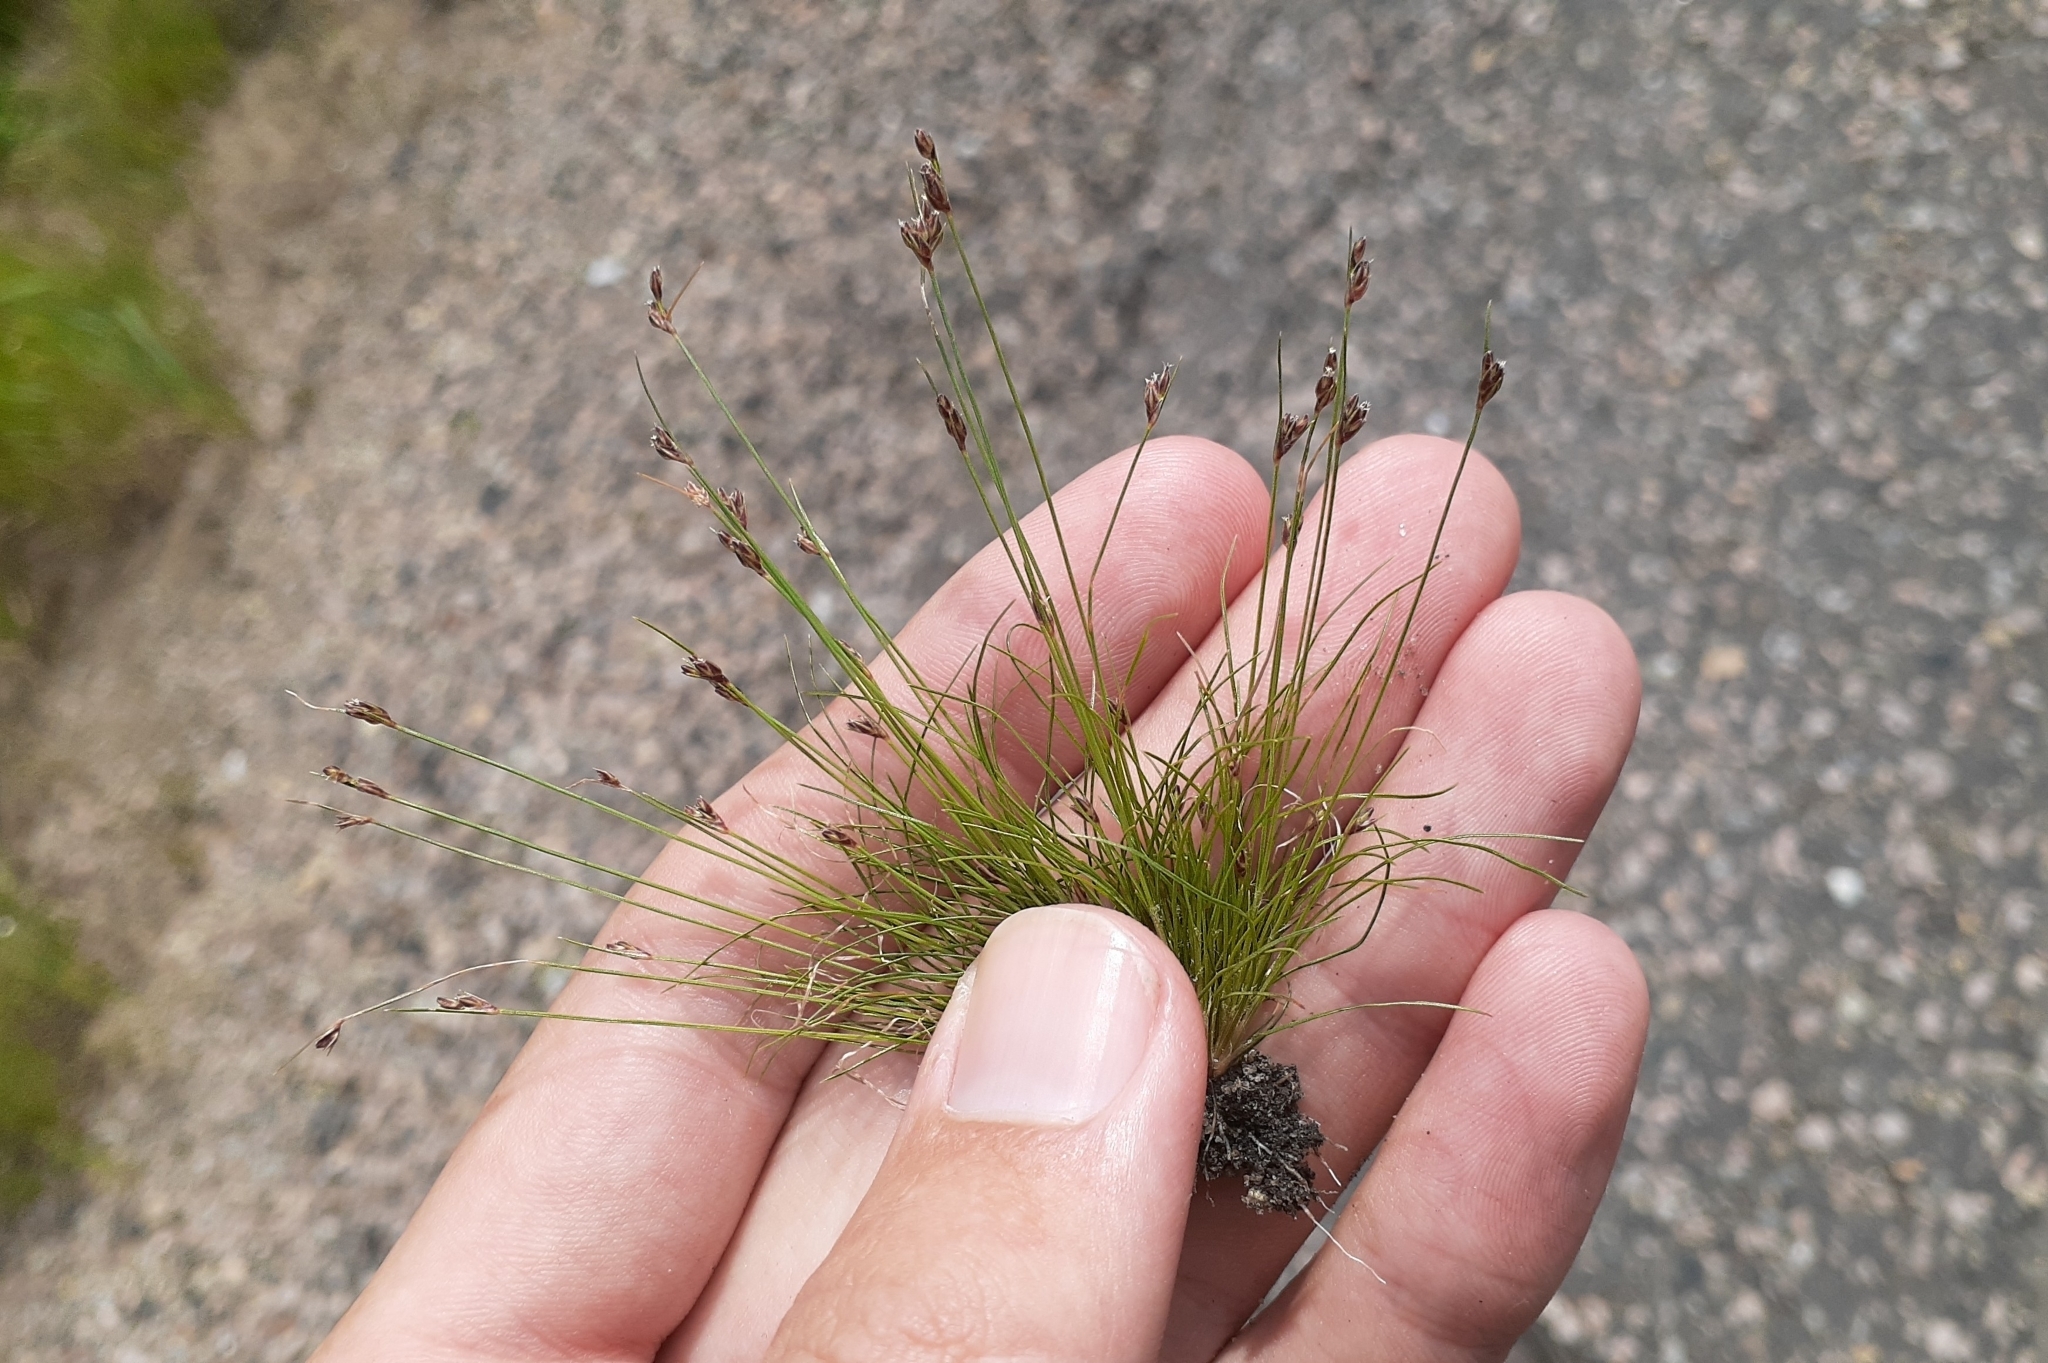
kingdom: Plantae
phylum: Tracheophyta
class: Liliopsida
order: Poales
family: Cyperaceae
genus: Bulbostylis
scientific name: Bulbostylis capillaris
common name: Densetuft hairsedge
